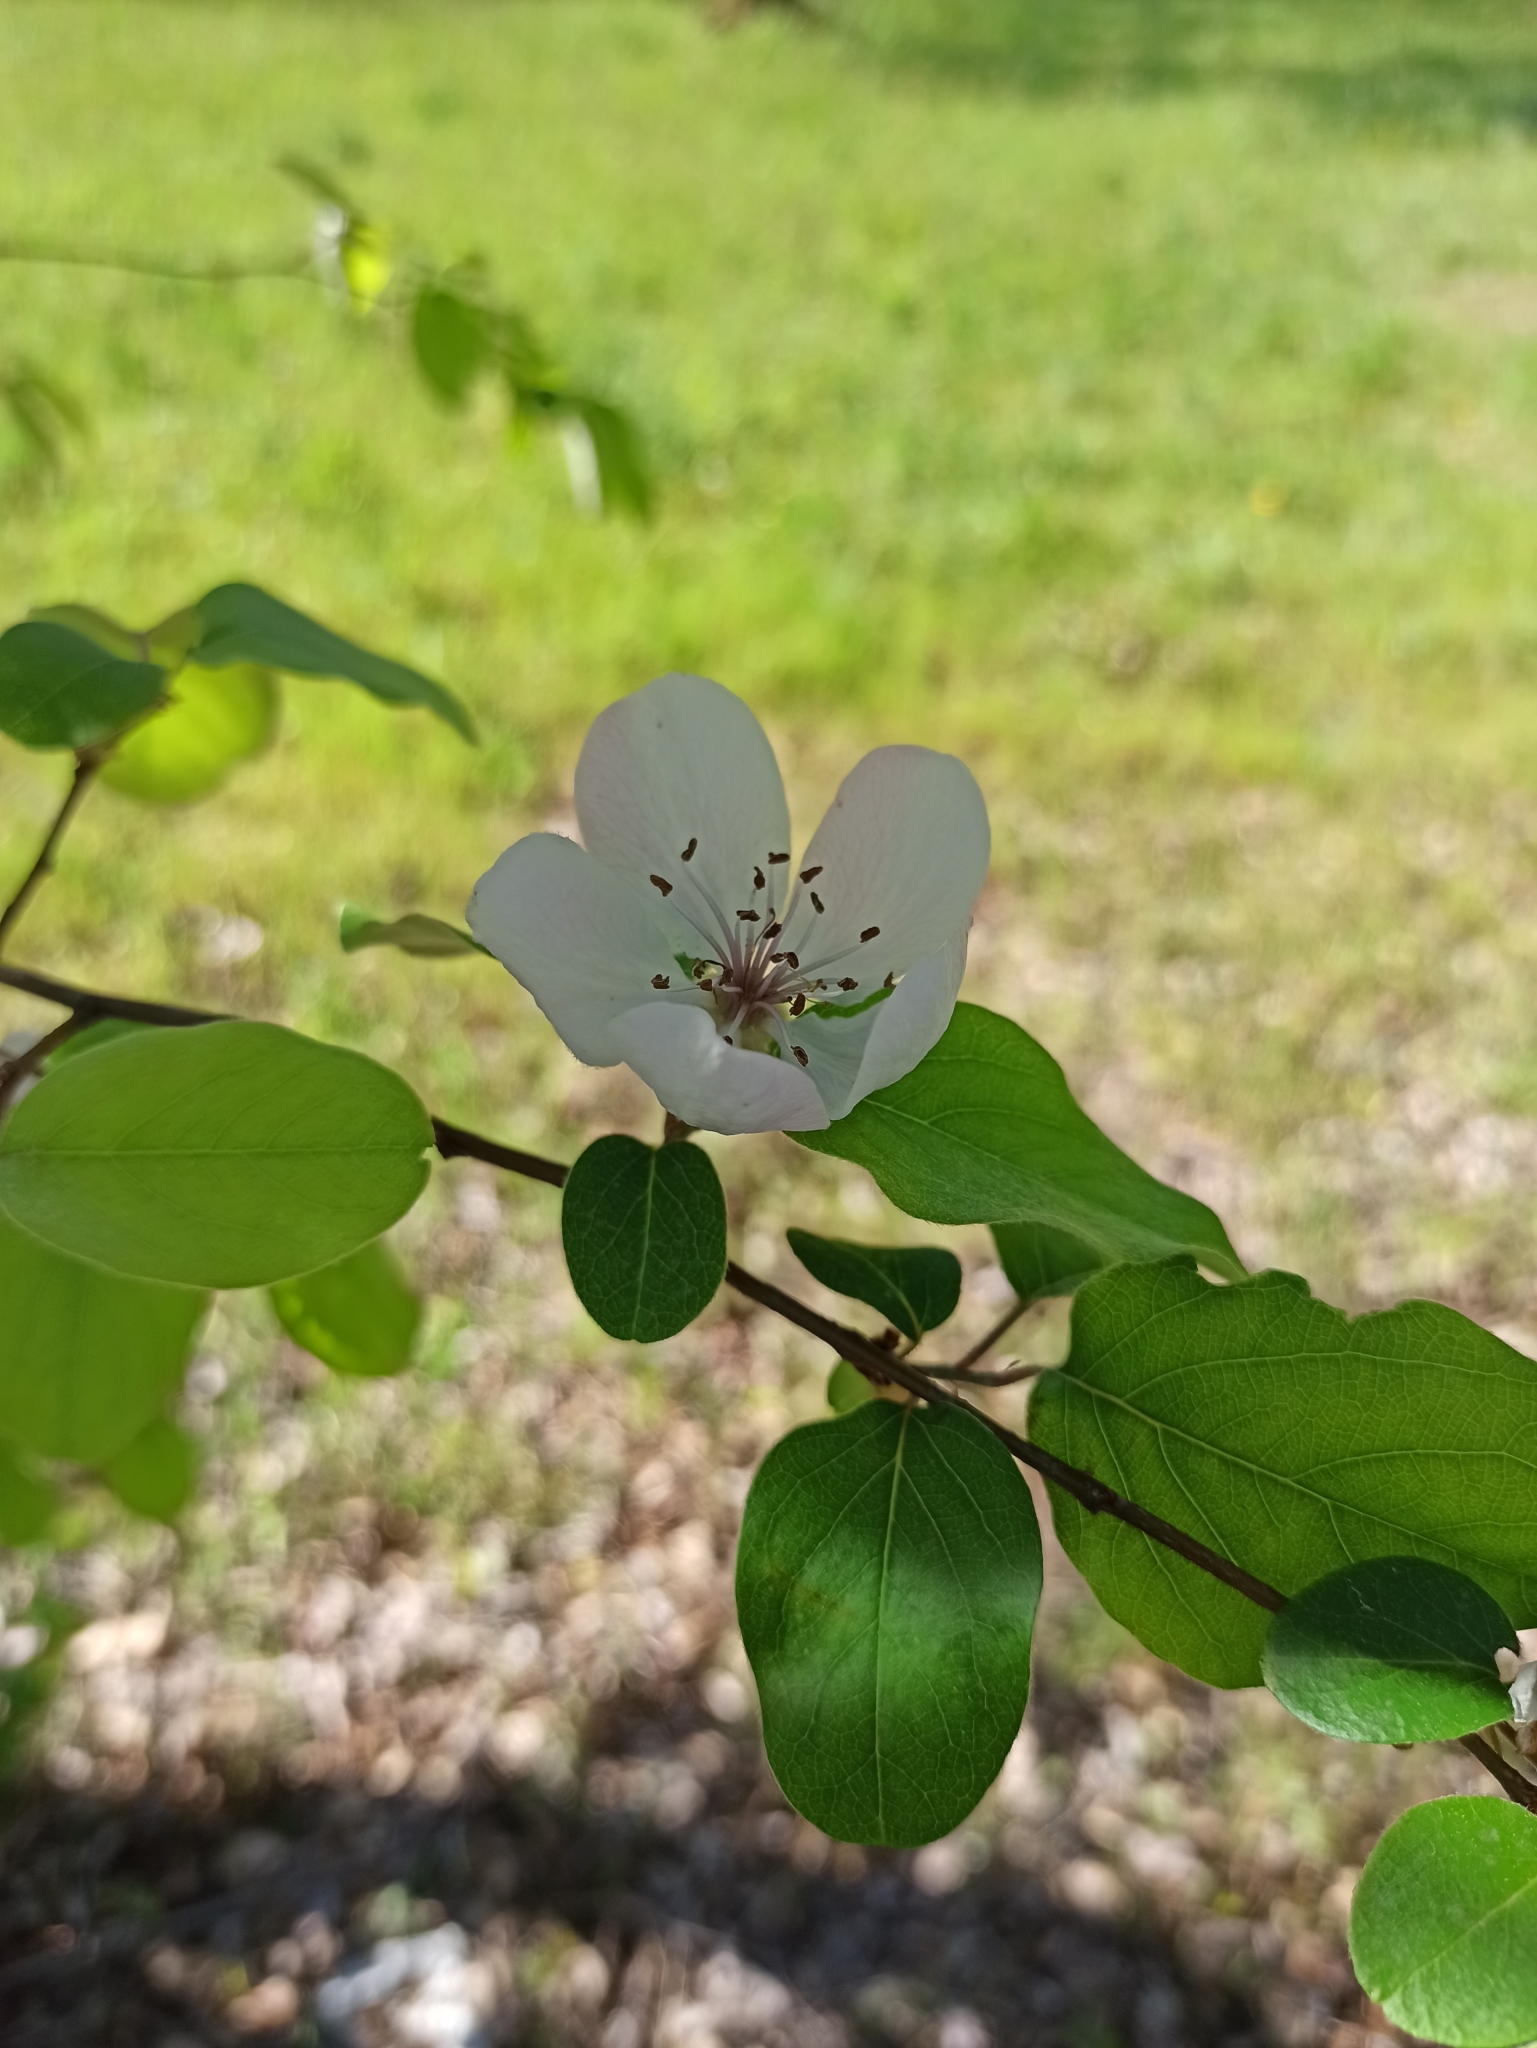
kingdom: Plantae
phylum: Tracheophyta
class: Magnoliopsida
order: Rosales
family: Rosaceae
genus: Cydonia
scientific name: Cydonia oblonga
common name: Quince
